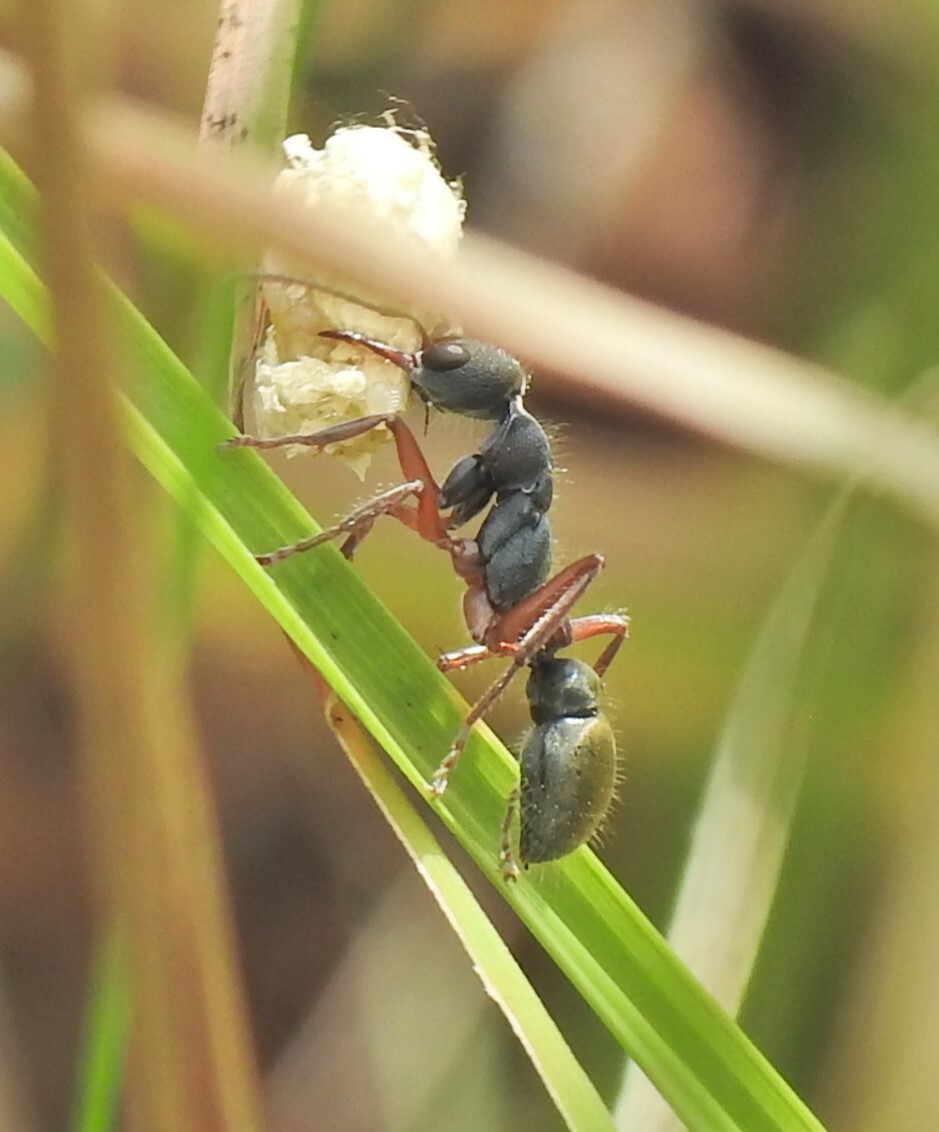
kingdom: Animalia
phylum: Arthropoda
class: Insecta
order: Hymenoptera
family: Formicidae
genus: Myrmecia
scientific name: Myrmecia chrysogaster
